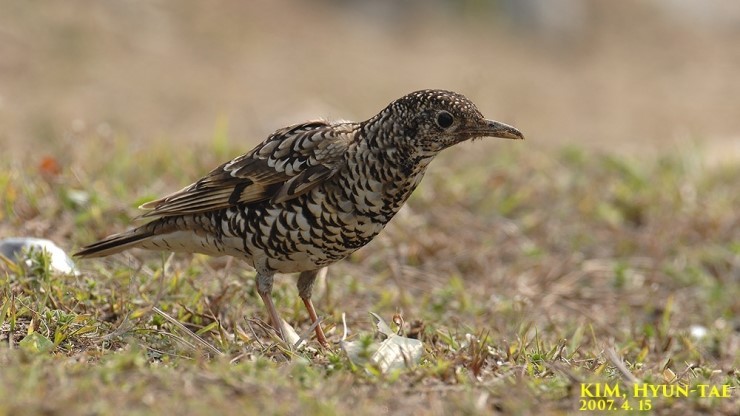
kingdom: Animalia
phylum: Chordata
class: Aves
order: Passeriformes
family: Turdidae
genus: Zoothera
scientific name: Zoothera aurea
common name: White's thrush
